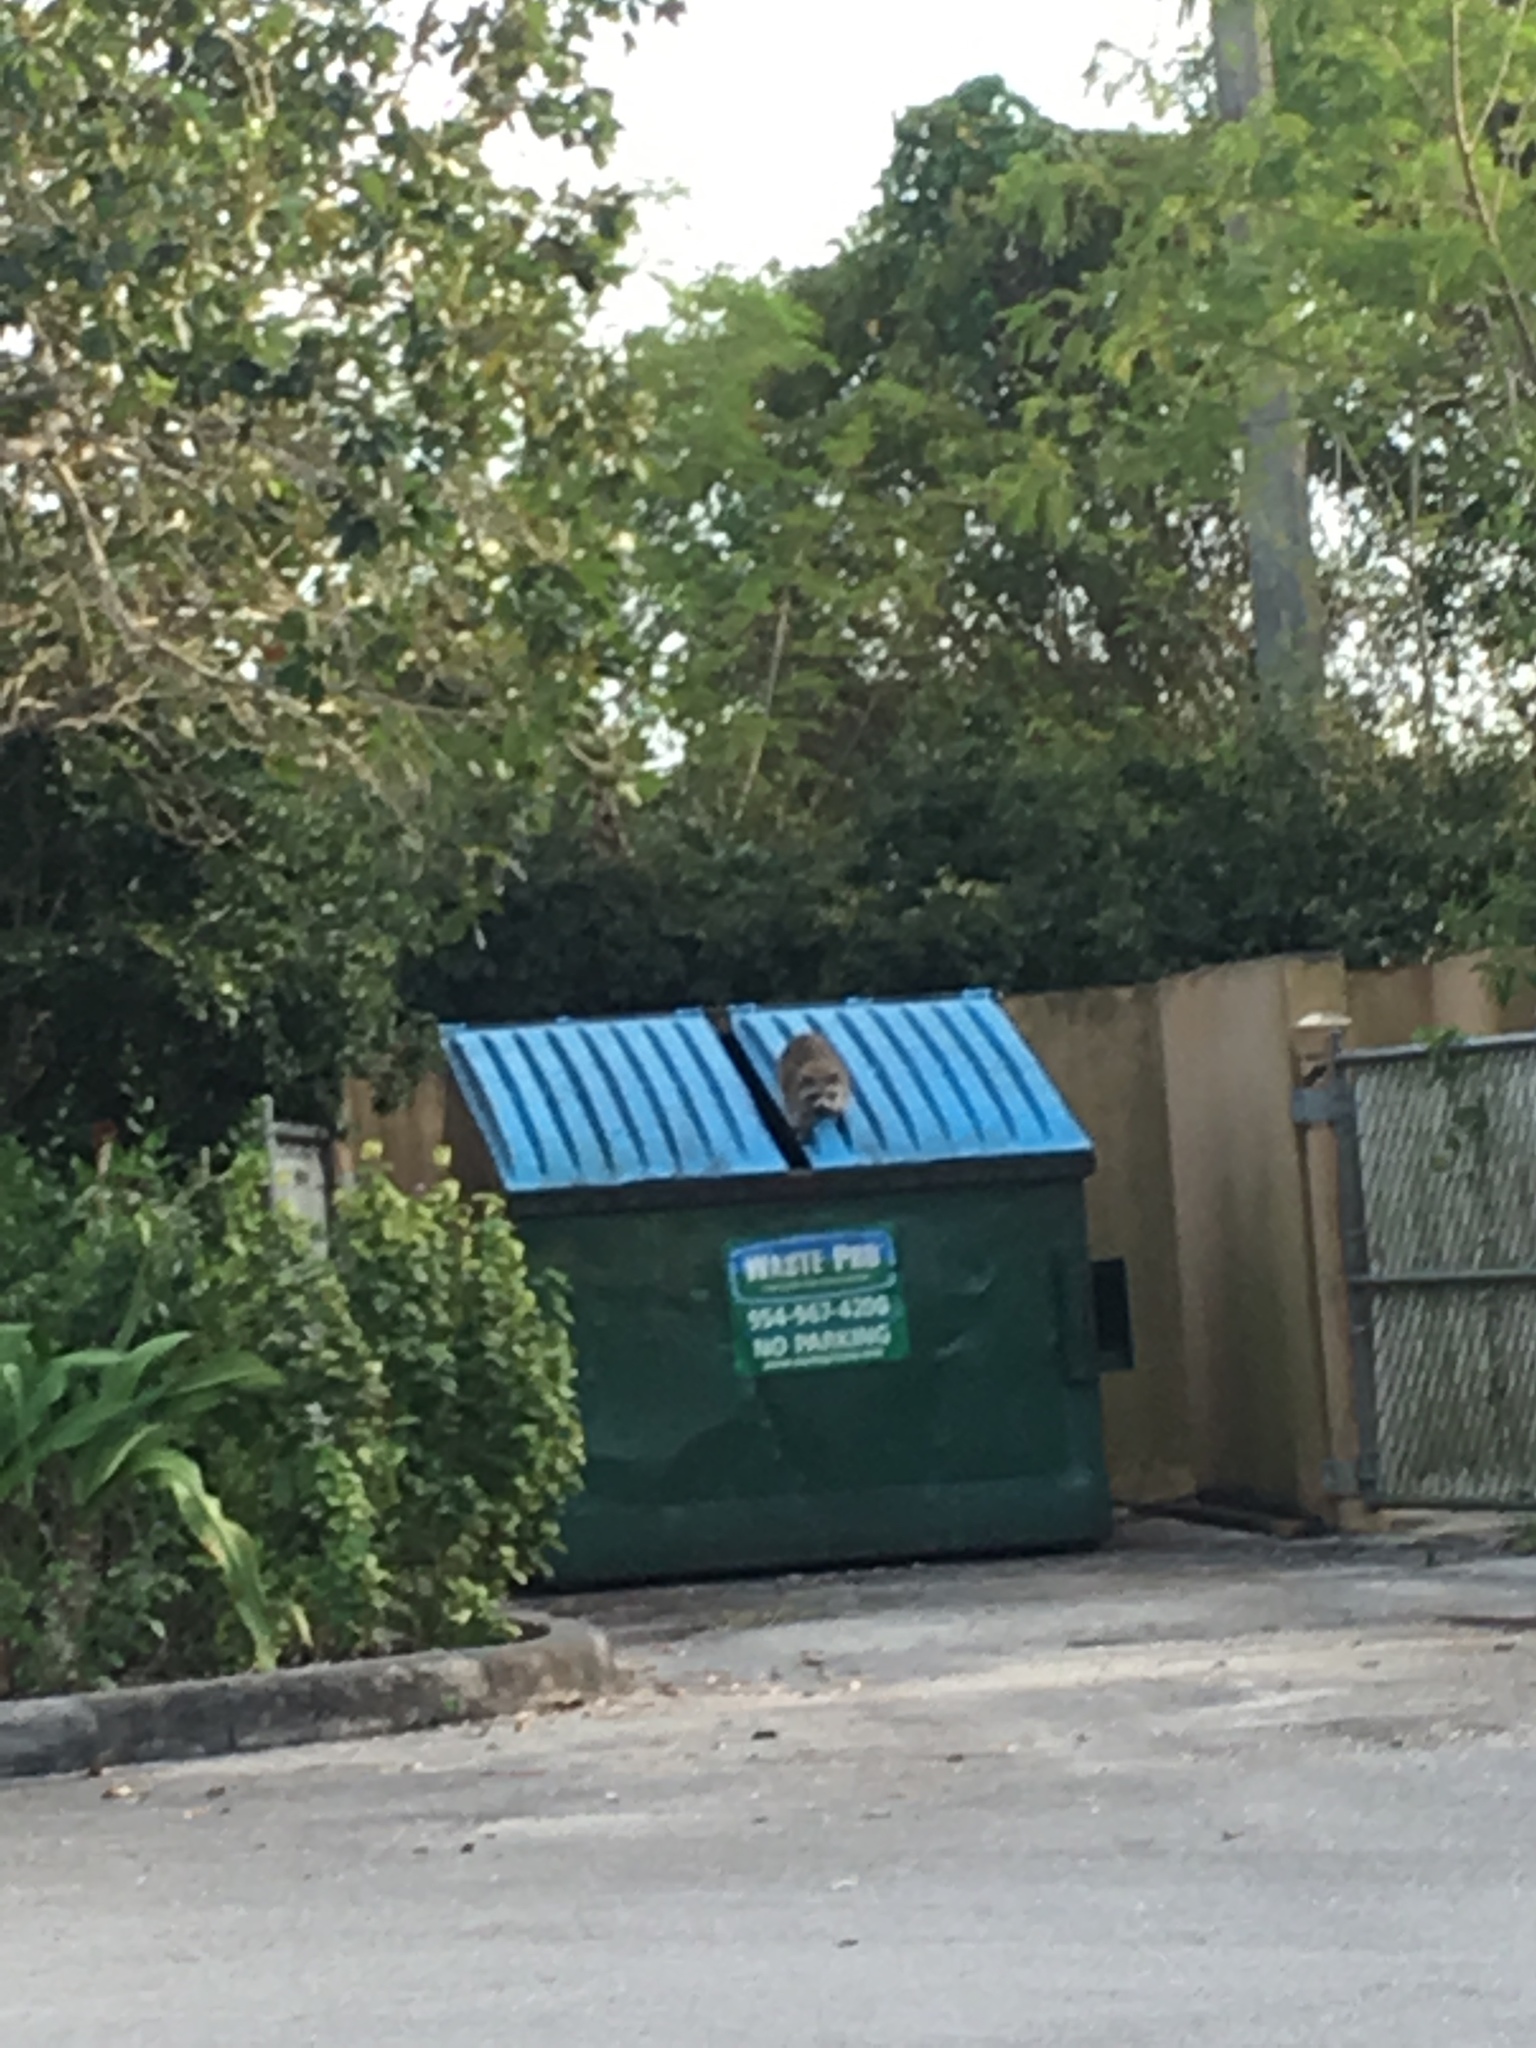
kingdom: Animalia
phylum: Chordata
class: Mammalia
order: Carnivora
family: Procyonidae
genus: Procyon
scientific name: Procyon lotor
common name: Raccoon
